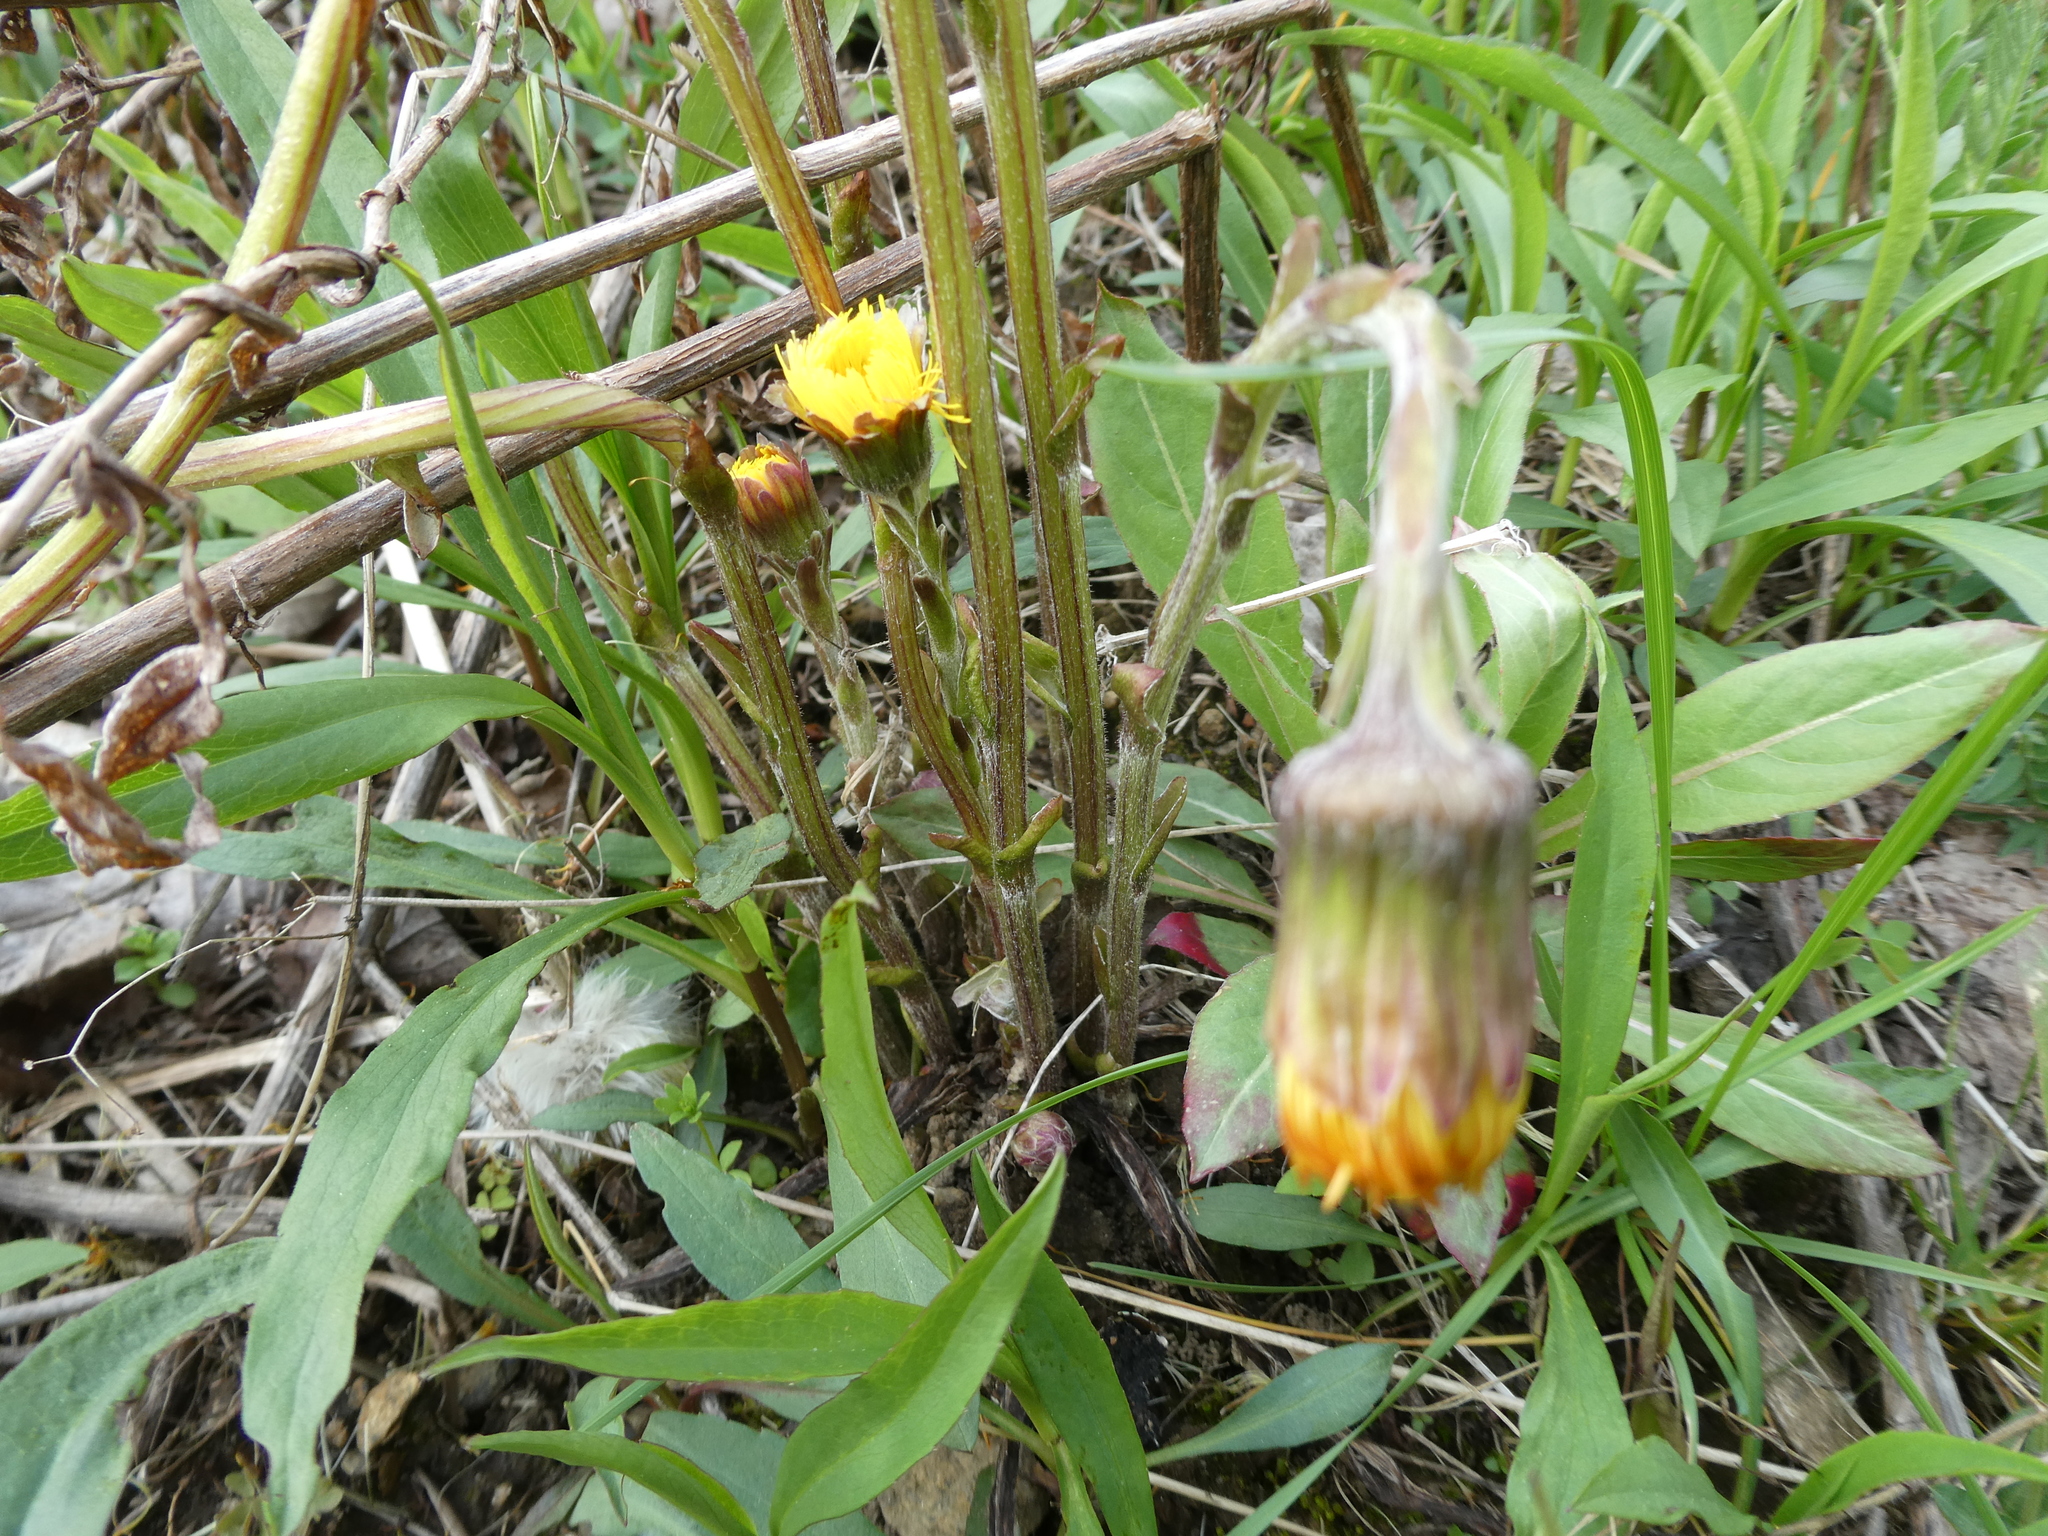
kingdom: Plantae
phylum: Tracheophyta
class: Magnoliopsida
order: Asterales
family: Asteraceae
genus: Tussilago
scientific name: Tussilago farfara
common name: Coltsfoot
